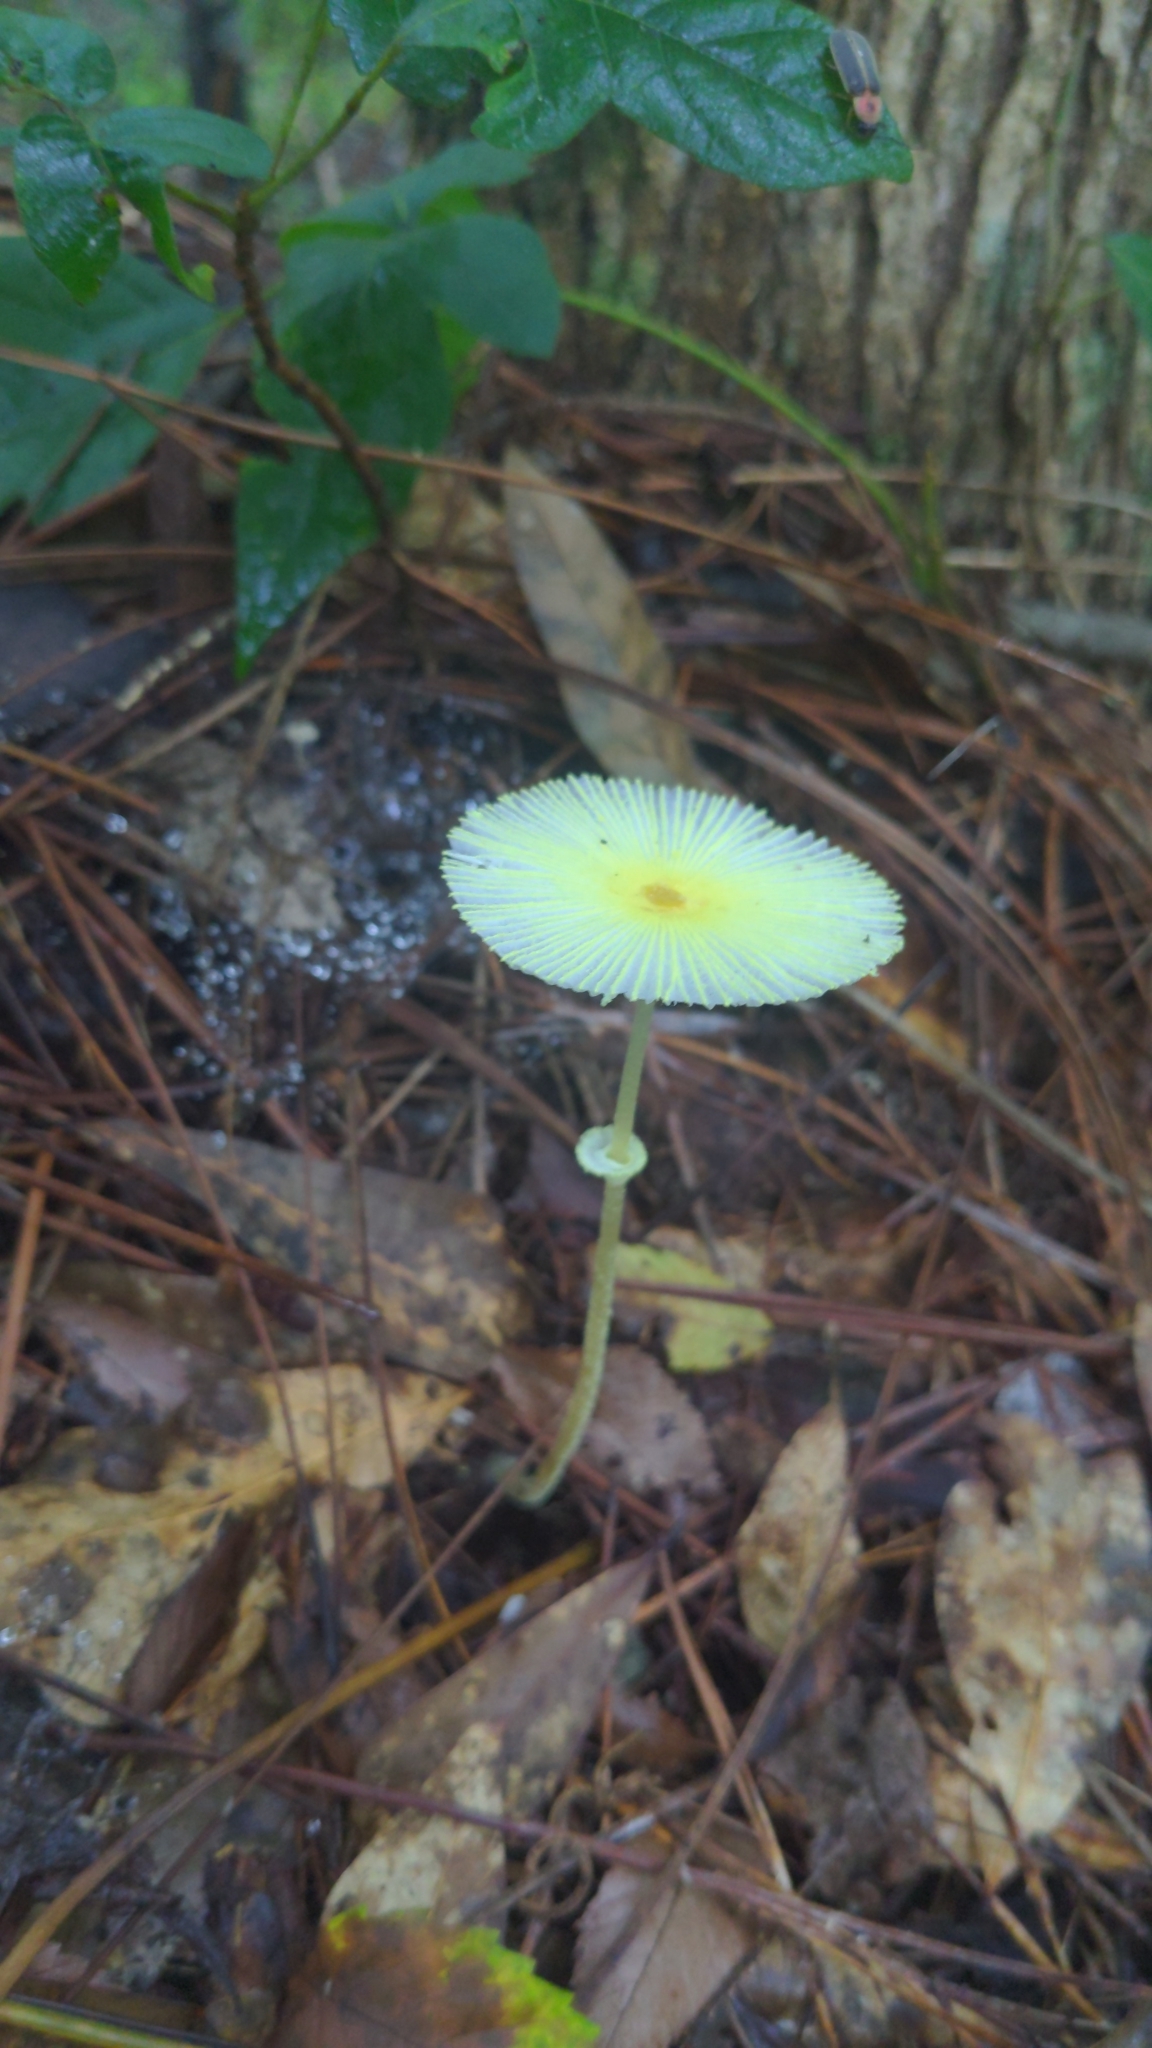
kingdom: Fungi
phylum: Basidiomycota
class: Agaricomycetes
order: Agaricales
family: Agaricaceae
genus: Leucocoprinus
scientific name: Leucocoprinus fragilissimus
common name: Fragile dapperling
